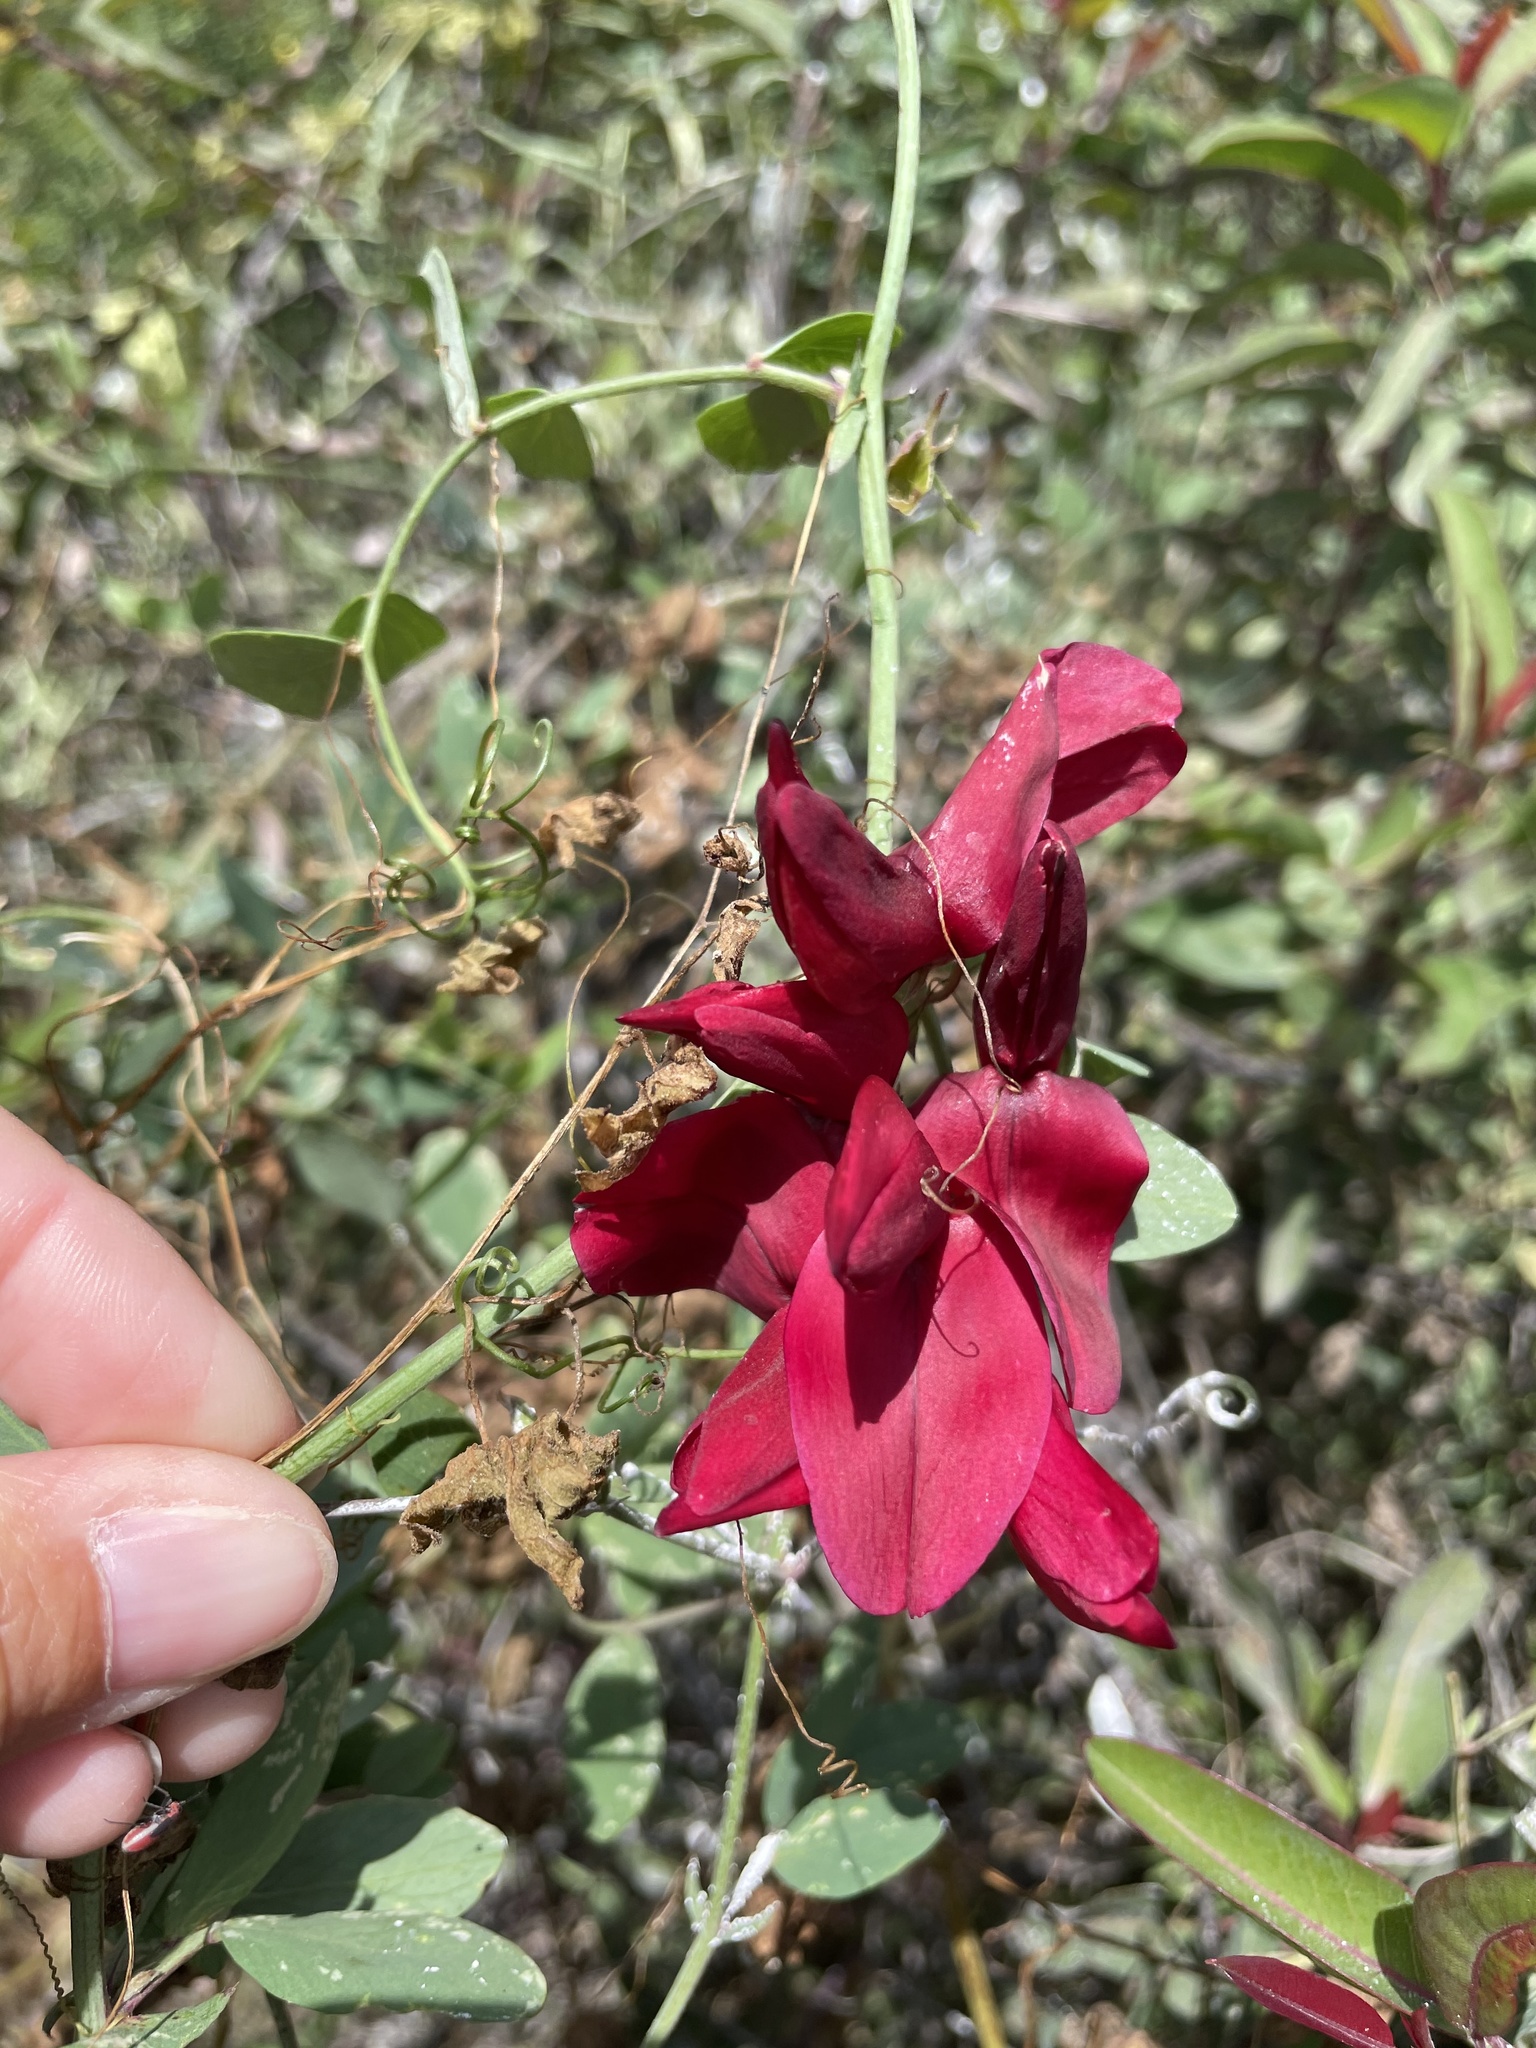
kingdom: Plantae
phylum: Tracheophyta
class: Magnoliopsida
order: Fabales
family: Fabaceae
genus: Lathyrus
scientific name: Lathyrus splendens
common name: Campo-pea
